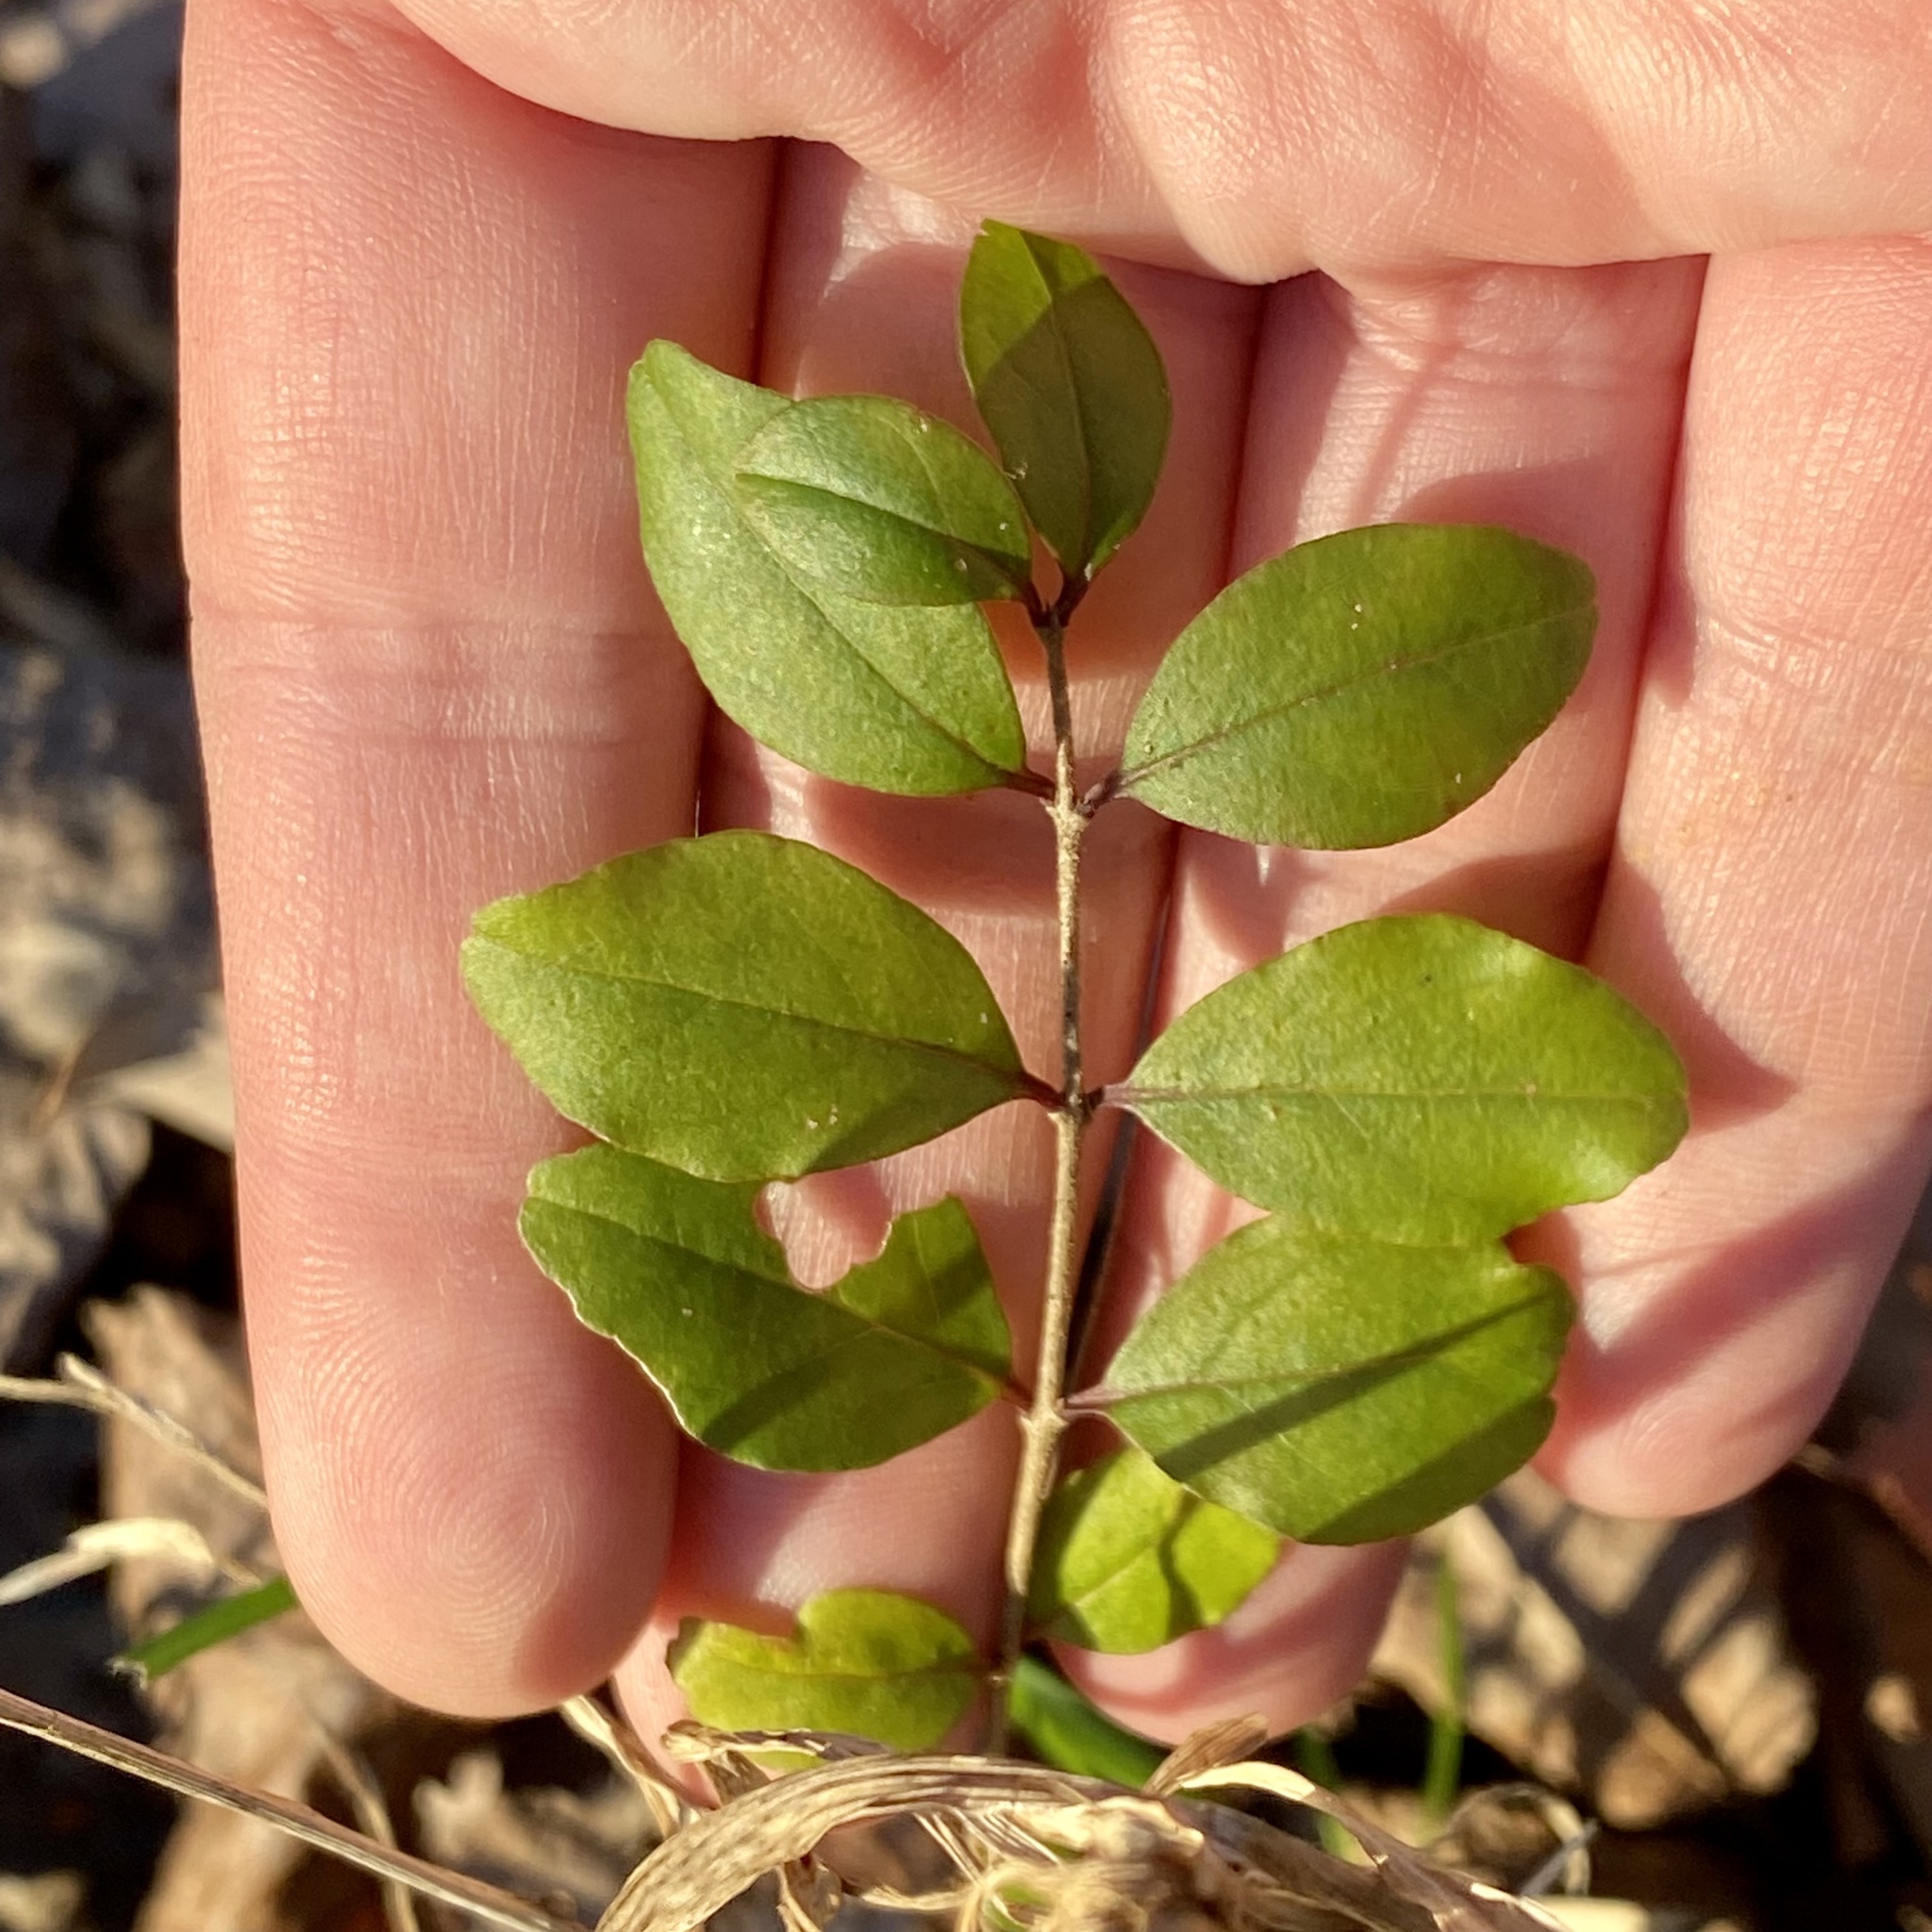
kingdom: Plantae
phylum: Tracheophyta
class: Magnoliopsida
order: Lamiales
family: Oleaceae
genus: Ligustrum
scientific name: Ligustrum sinense
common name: Chinese privet
